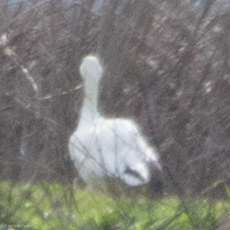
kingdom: Animalia
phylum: Chordata
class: Aves
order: Anseriformes
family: Anatidae
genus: Anser
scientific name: Anser
